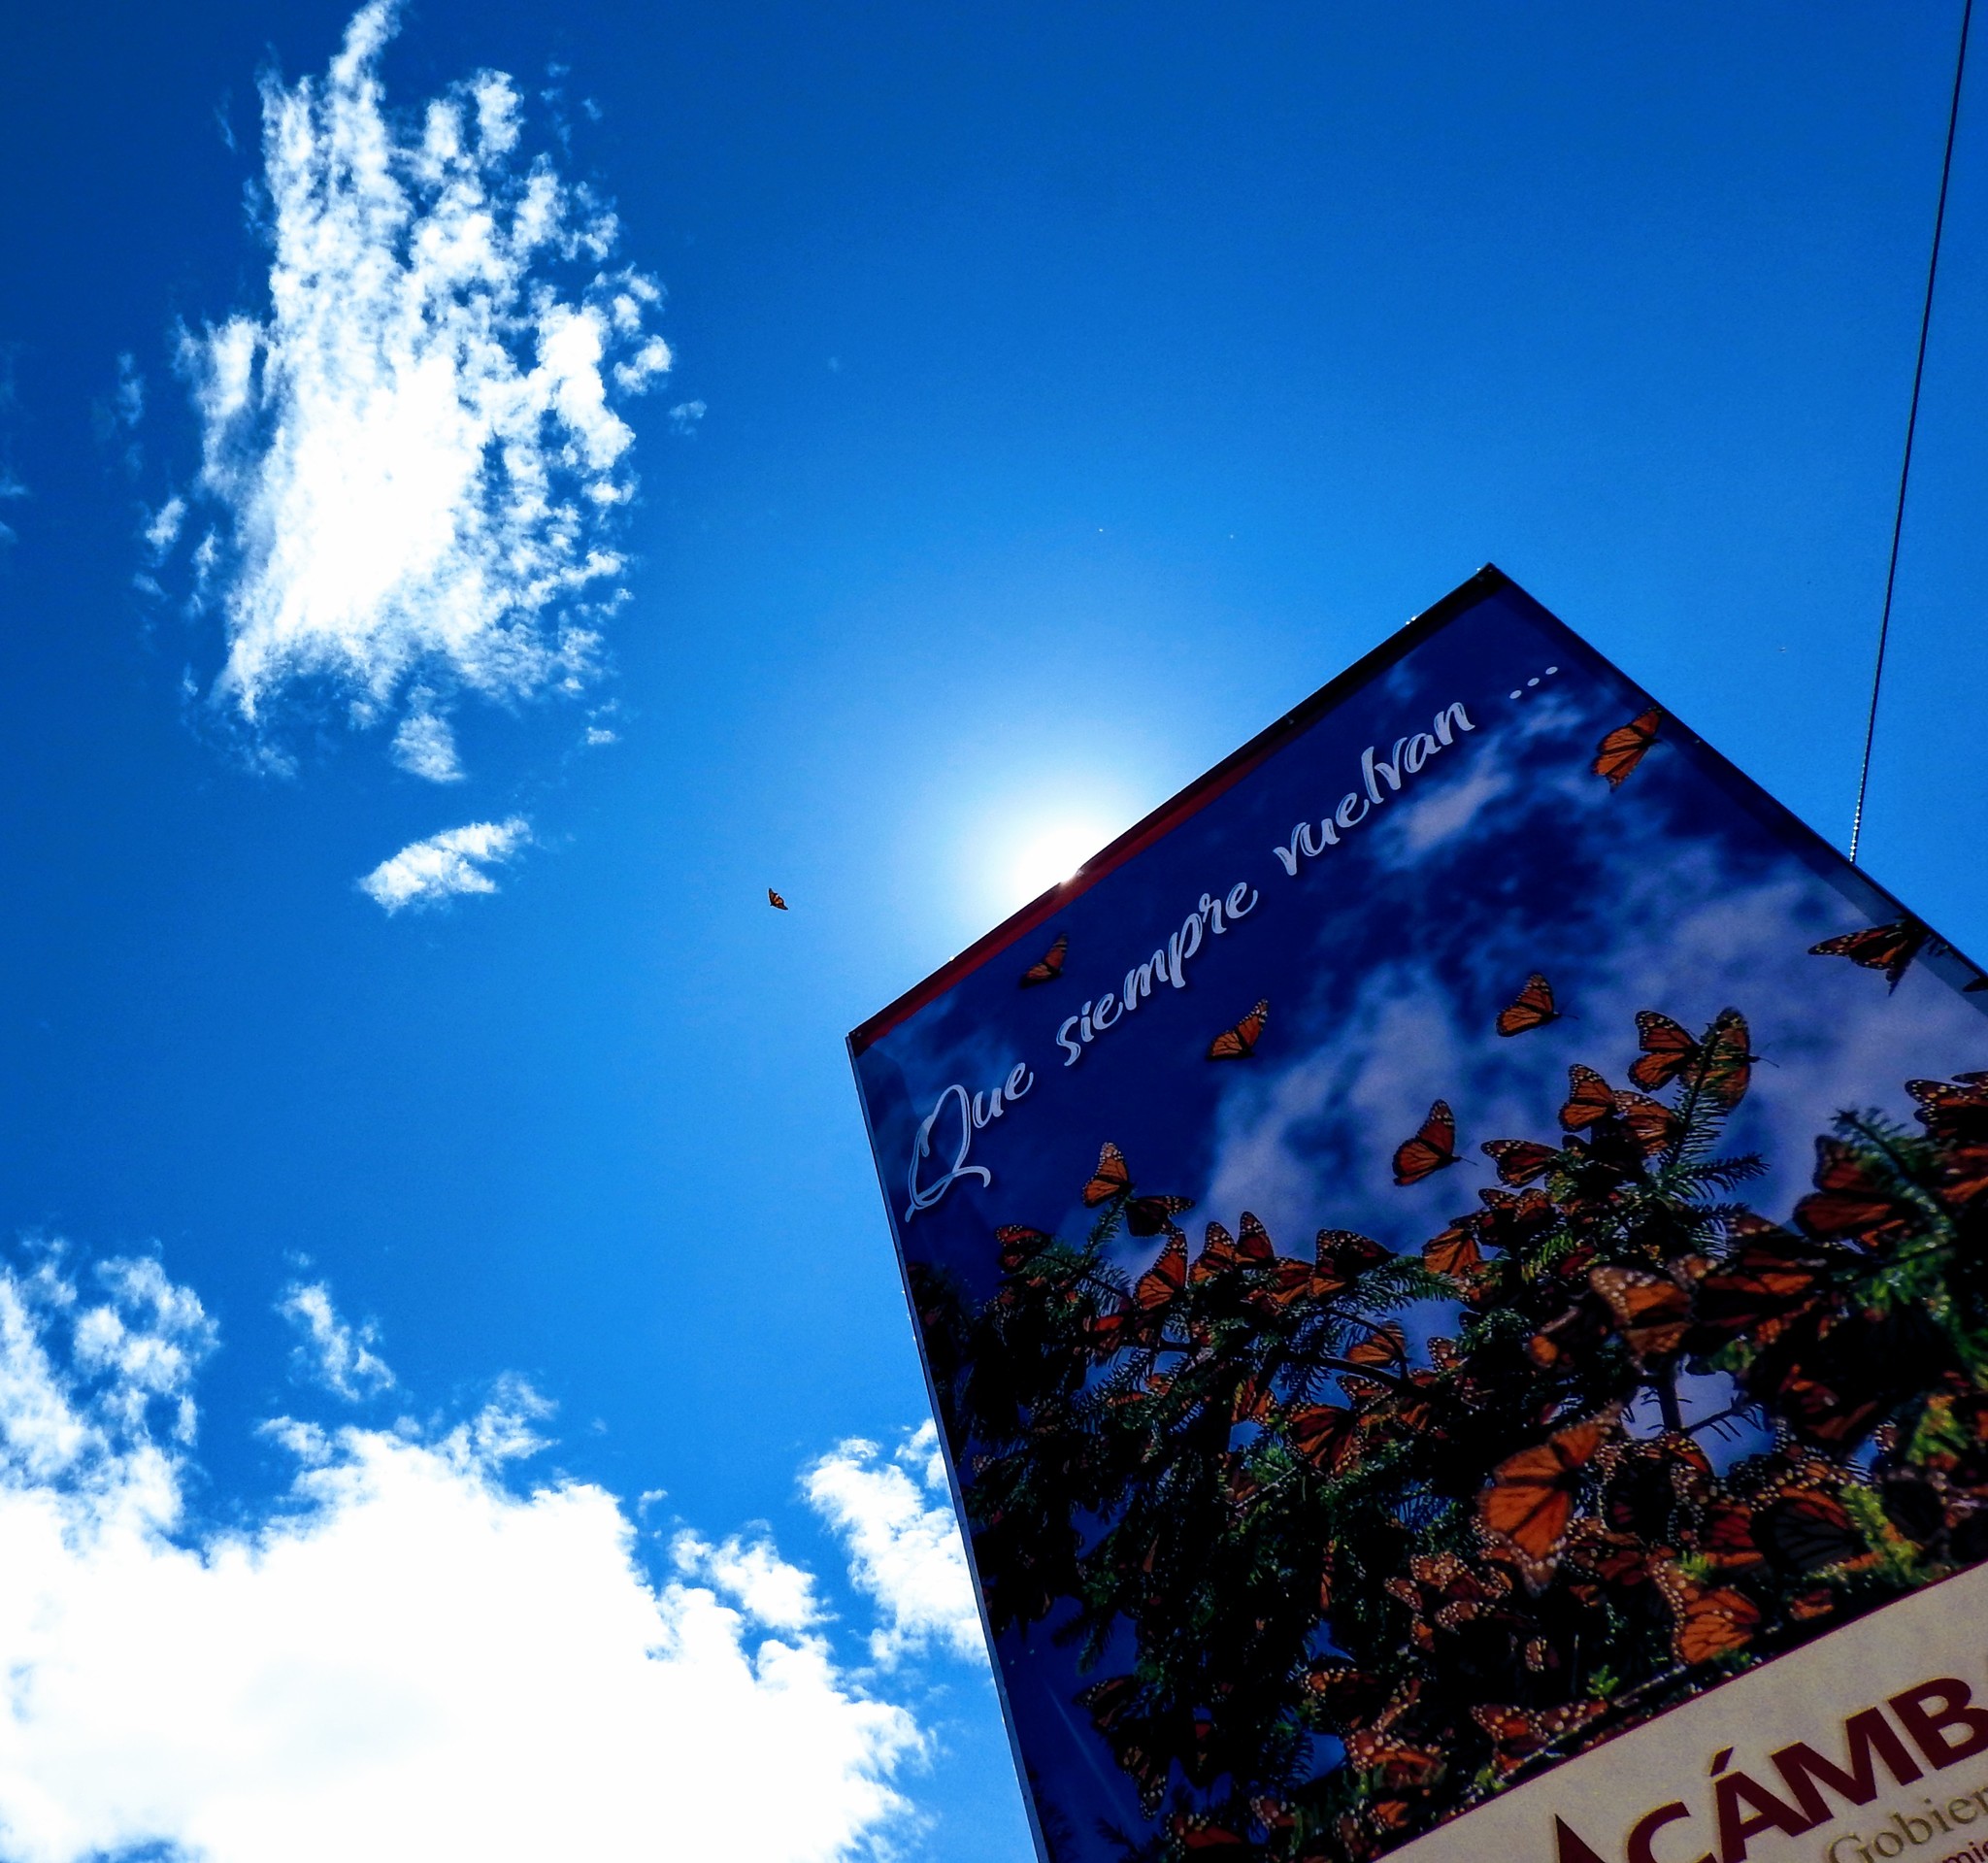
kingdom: Animalia
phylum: Arthropoda
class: Insecta
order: Lepidoptera
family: Nymphalidae
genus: Danaus
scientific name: Danaus plexippus
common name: Monarch
